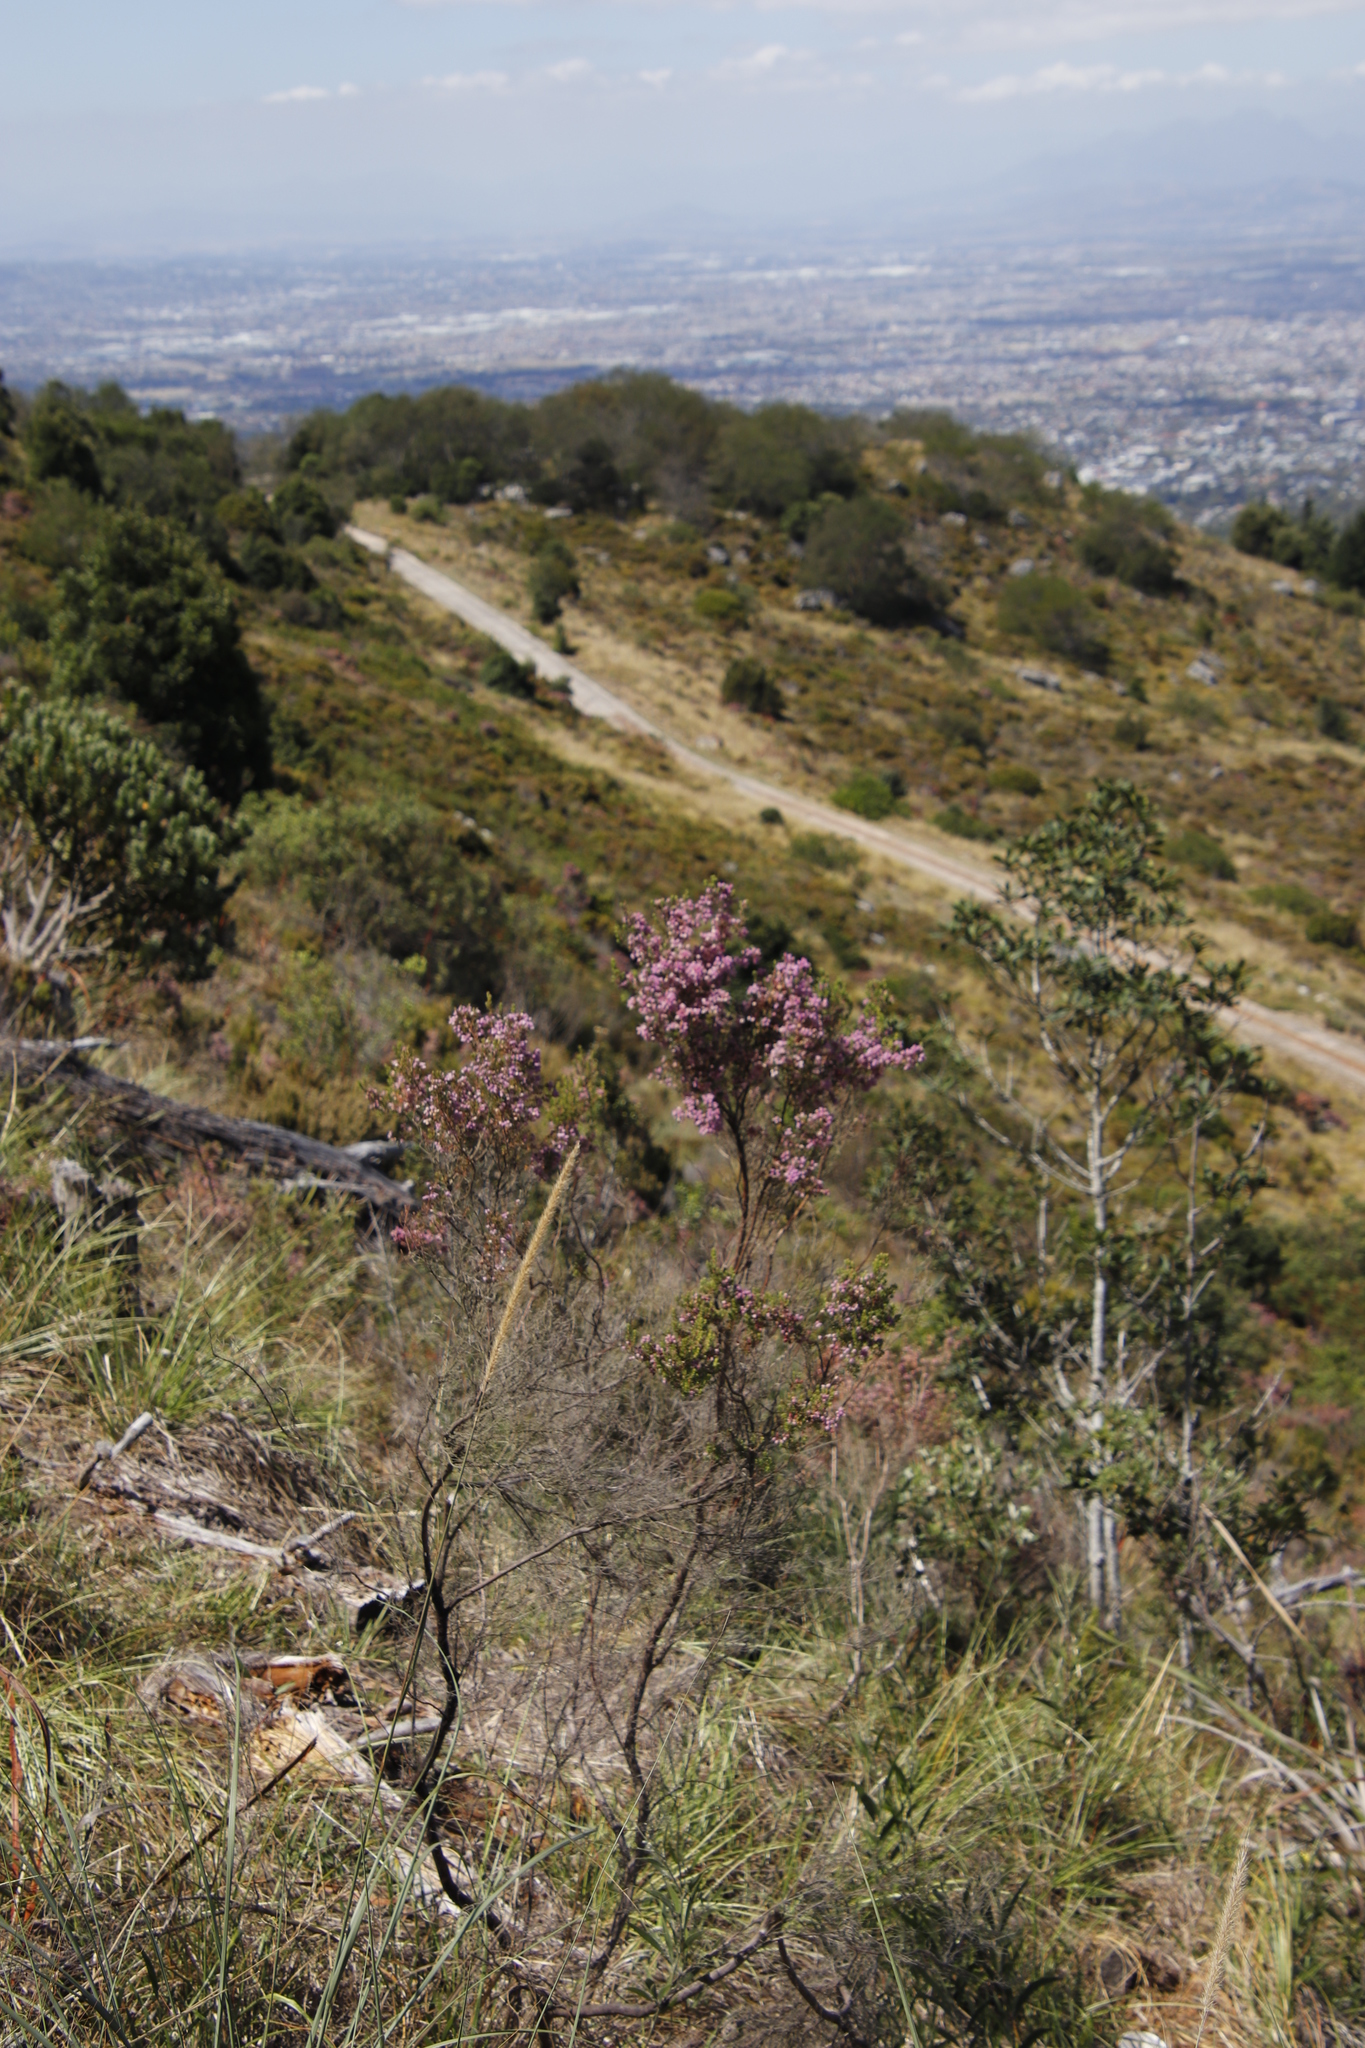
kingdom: Plantae
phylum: Tracheophyta
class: Magnoliopsida
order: Ericales
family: Ericaceae
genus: Erica
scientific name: Erica hirtiflora
